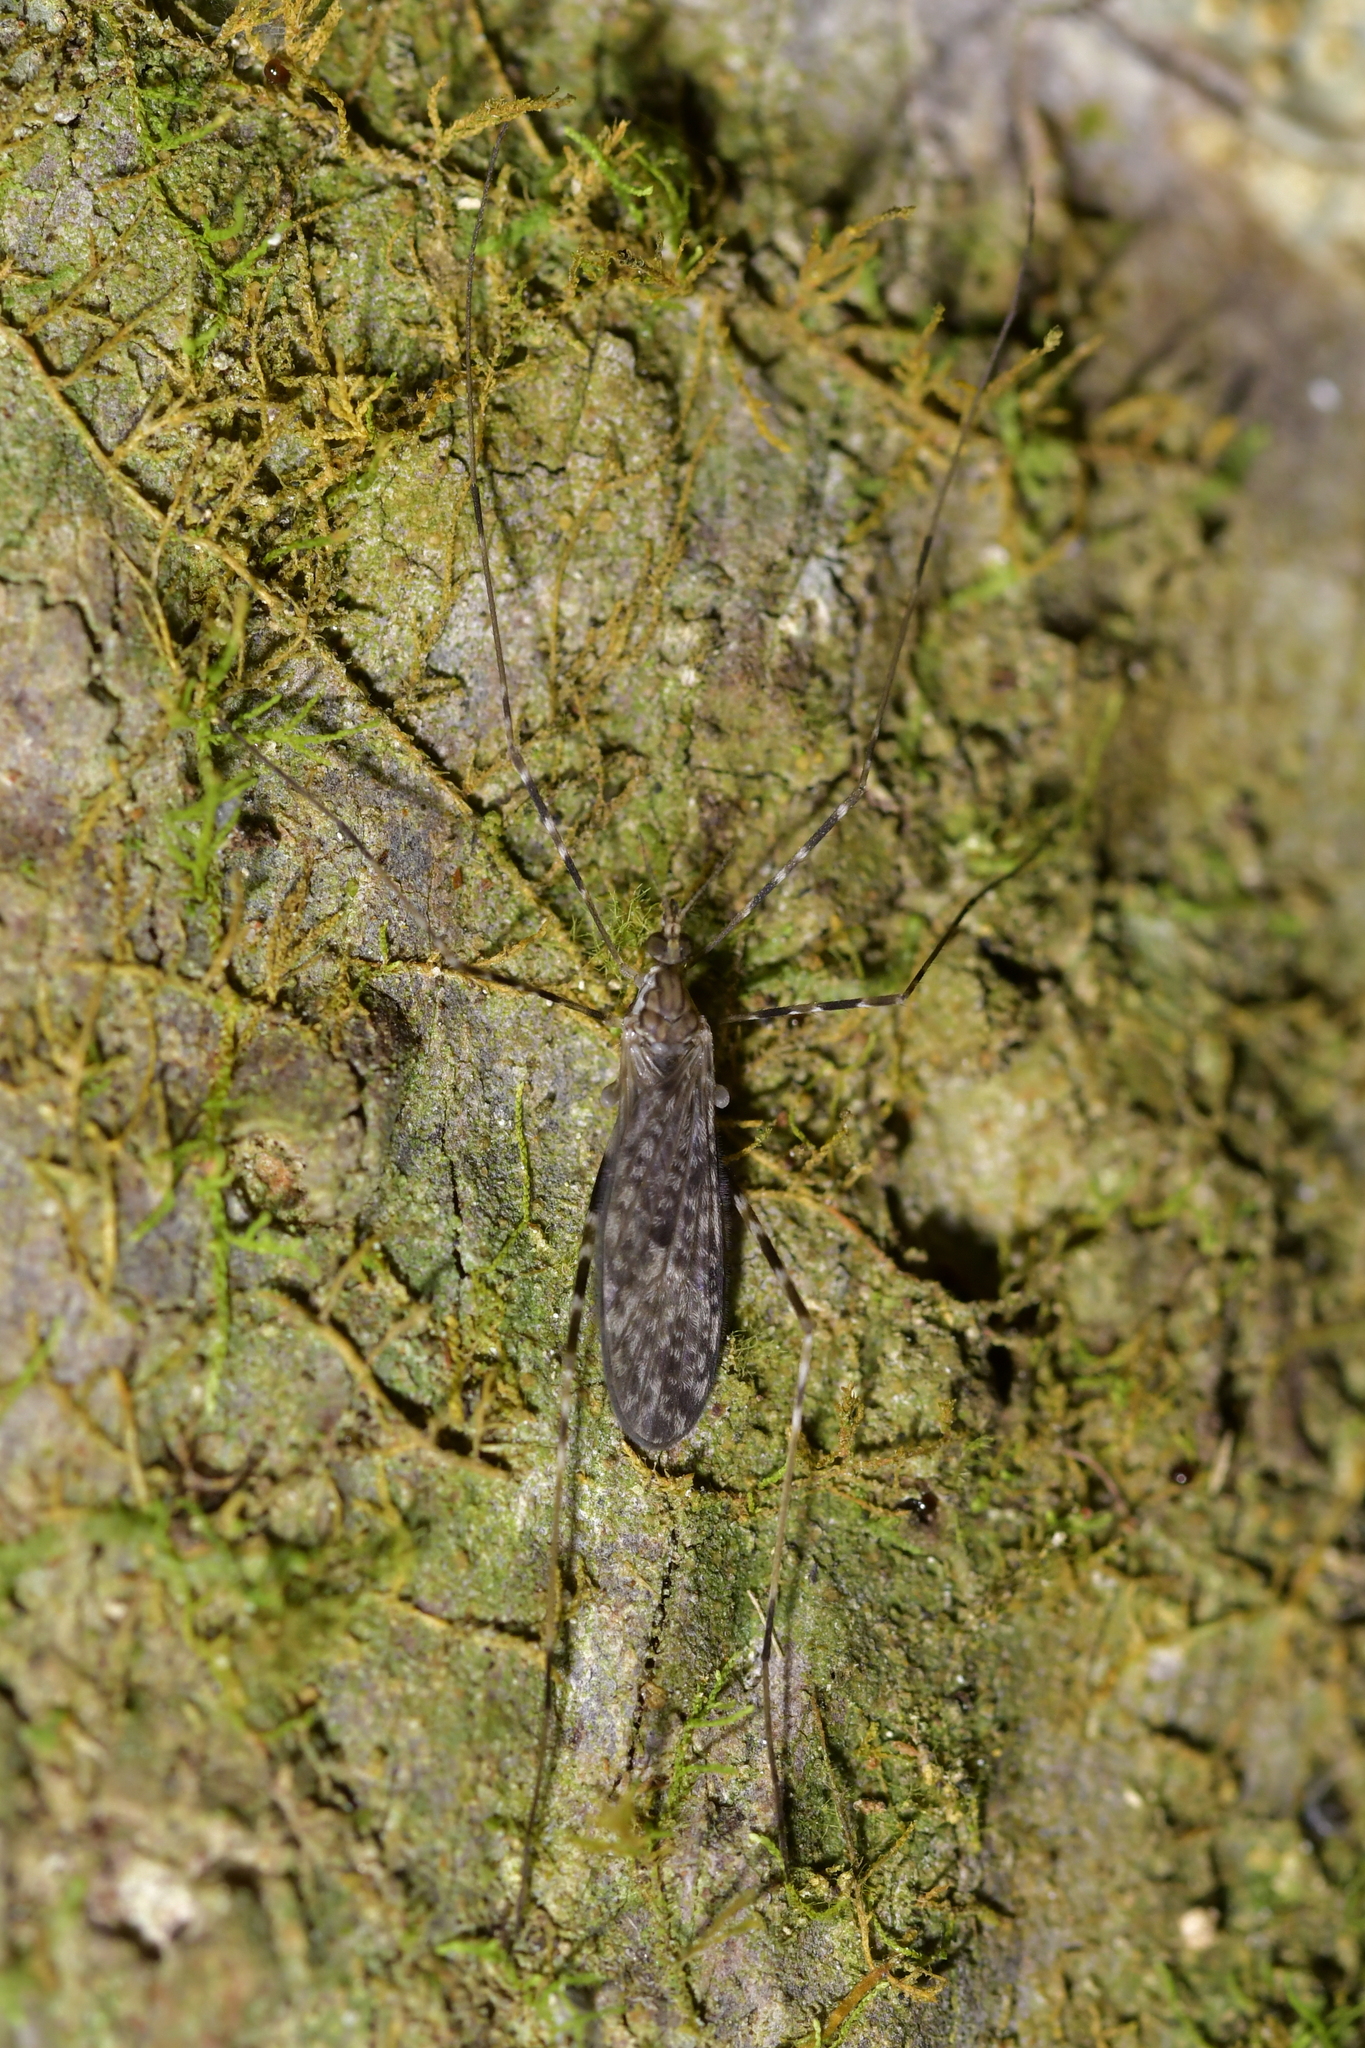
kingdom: Animalia
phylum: Arthropoda
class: Insecta
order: Diptera
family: Limoniidae
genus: Amphineurus
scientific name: Amphineurus hudsoni
